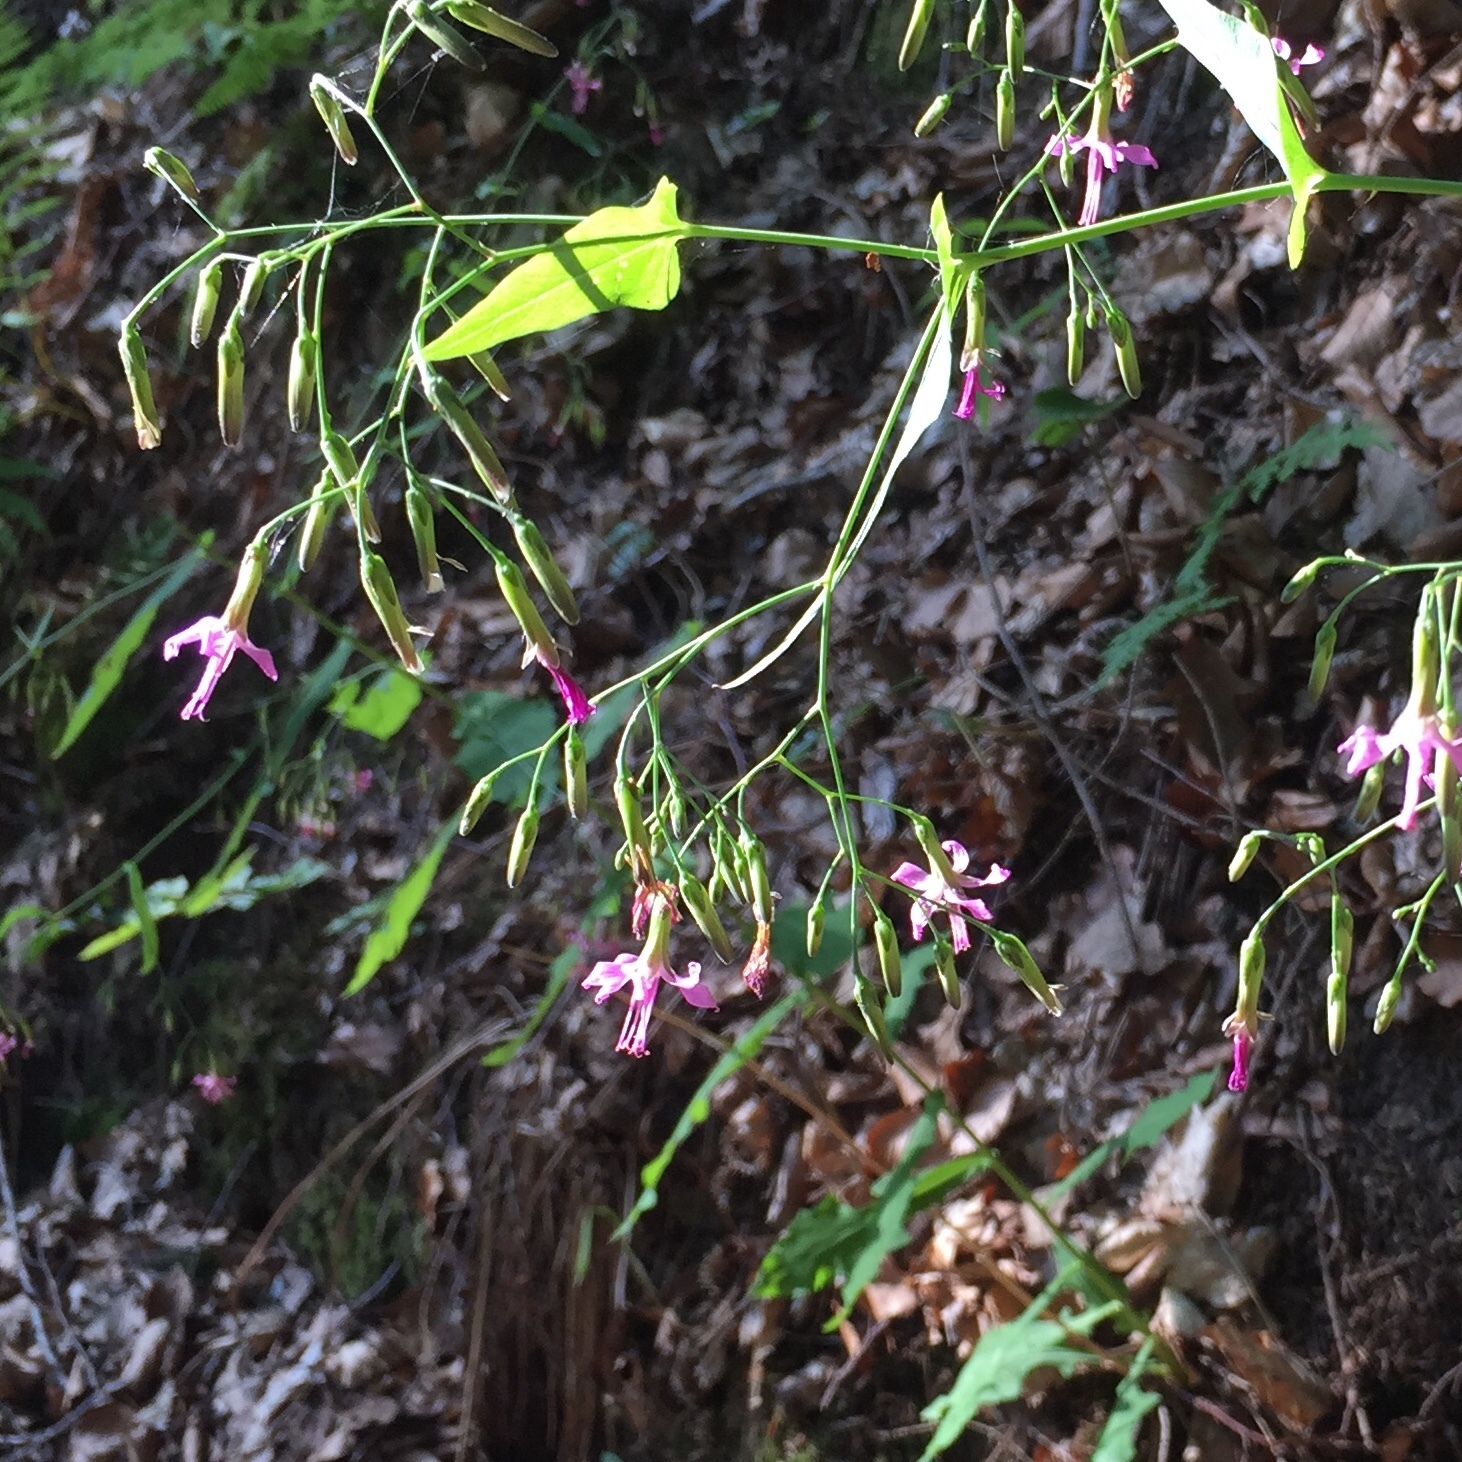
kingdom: Plantae
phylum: Tracheophyta
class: Magnoliopsida
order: Asterales
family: Asteraceae
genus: Prenanthes
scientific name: Prenanthes purpurea
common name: Purple lettuce
